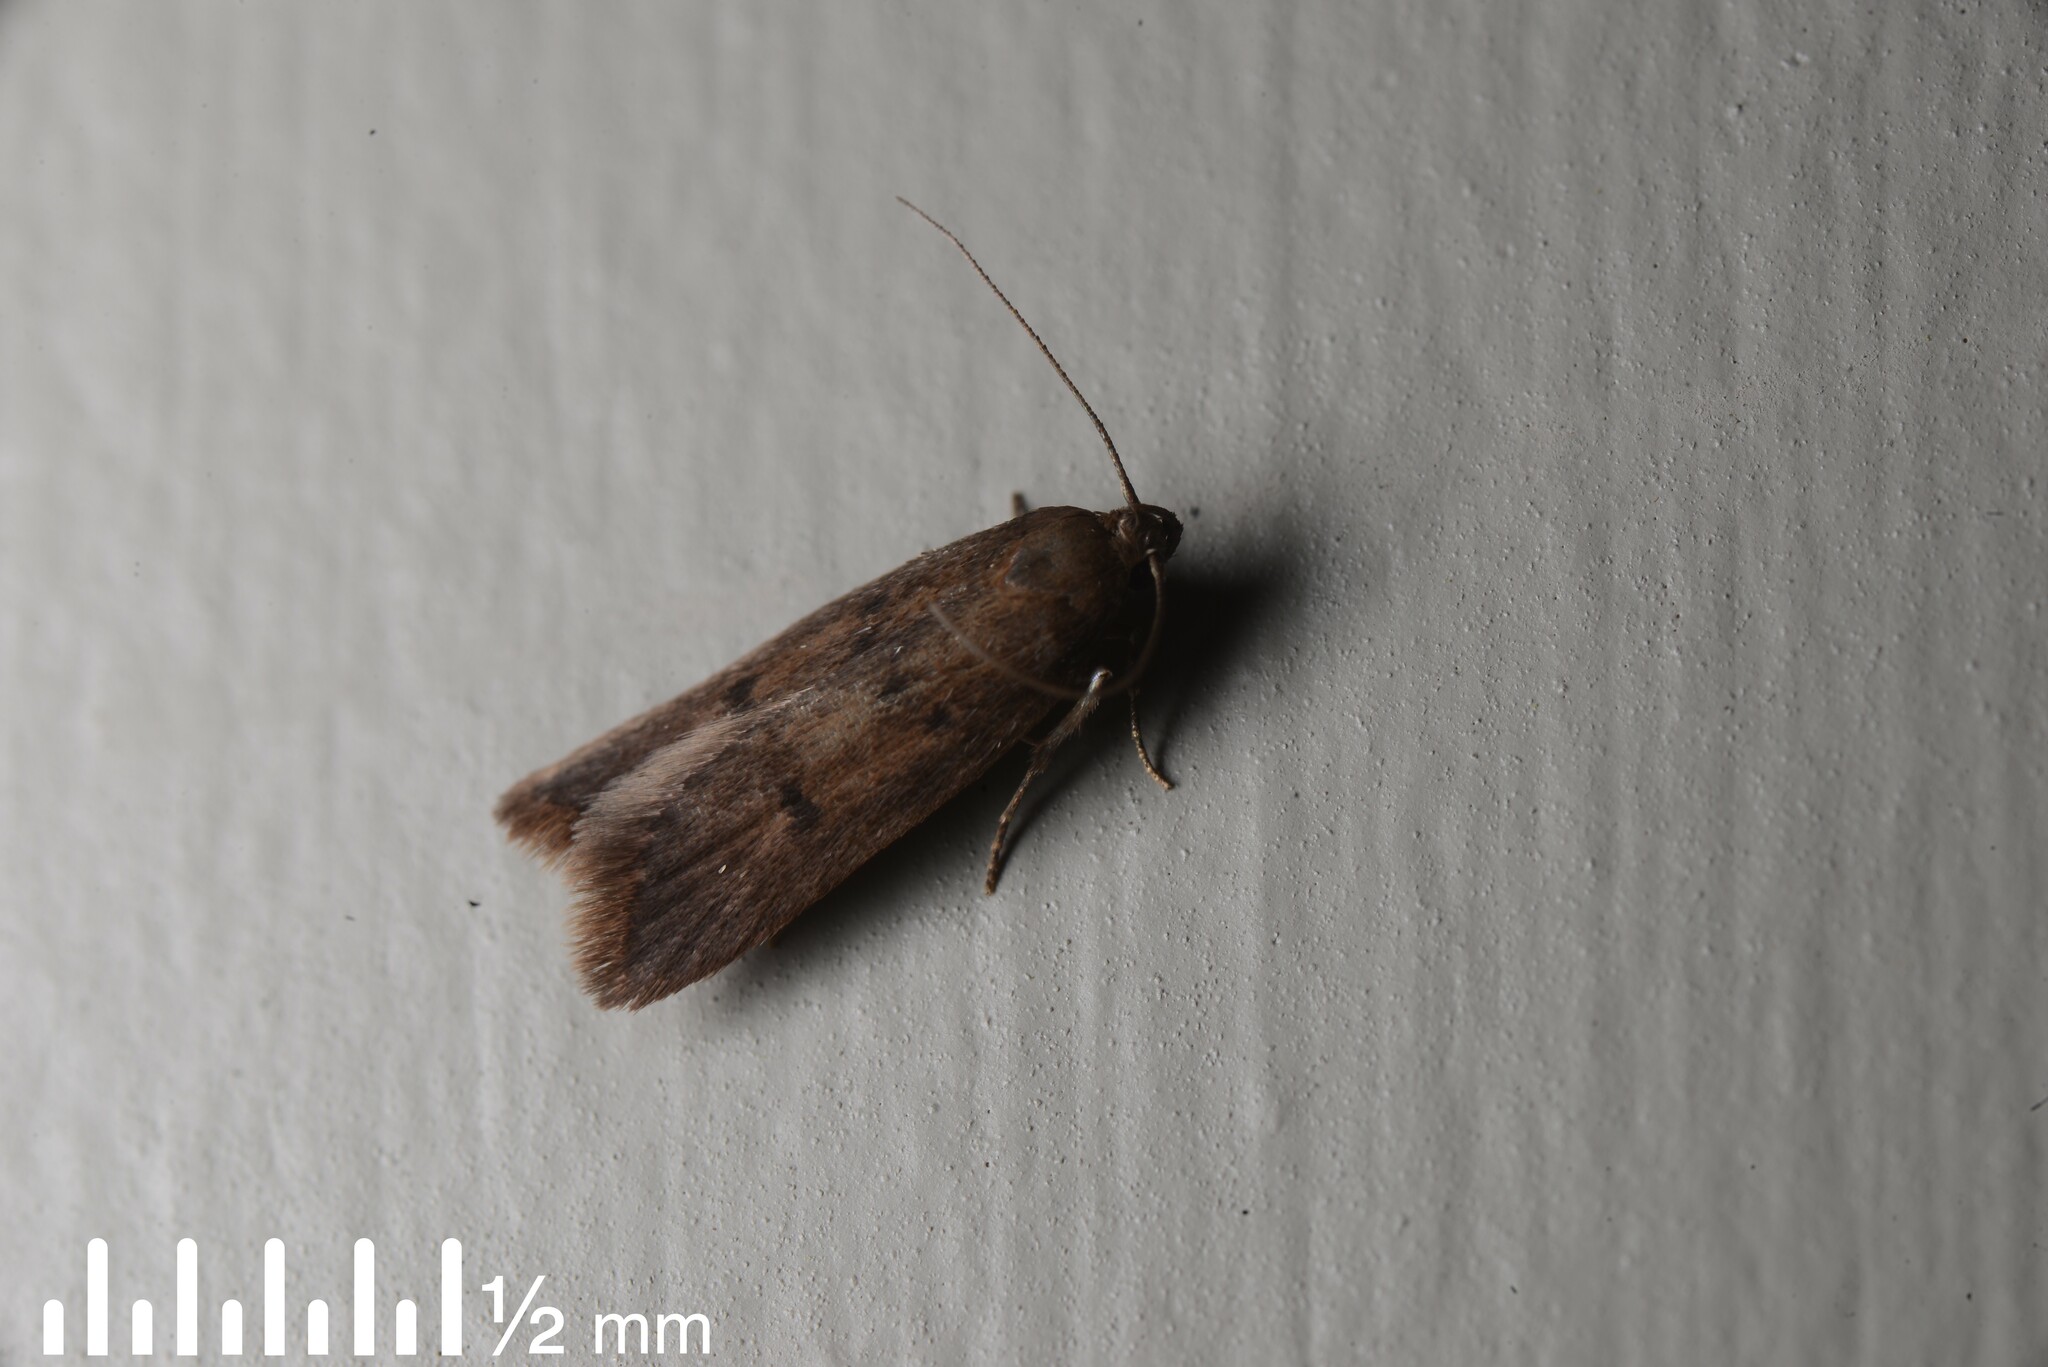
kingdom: Animalia
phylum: Arthropoda
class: Insecta
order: Lepidoptera
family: Oecophoridae
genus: Tachystola
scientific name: Tachystola acroxantha
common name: Ruddy streak
